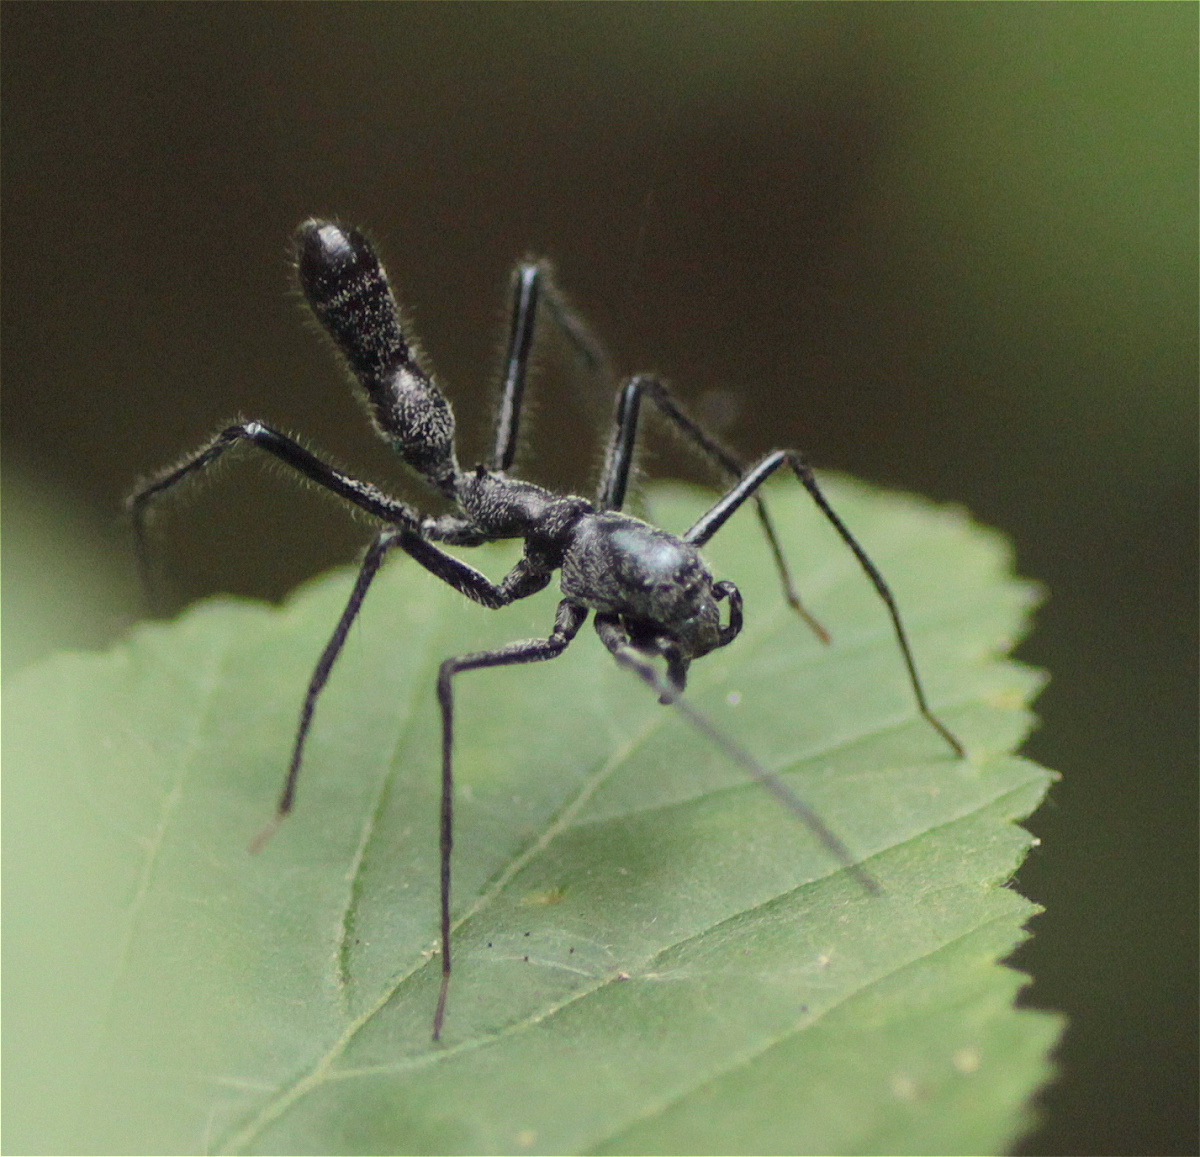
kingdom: Animalia
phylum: Arthropoda
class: Arachnida
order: Araneae
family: Corinnidae
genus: Myrmecium
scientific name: Myrmecium monacanthum
